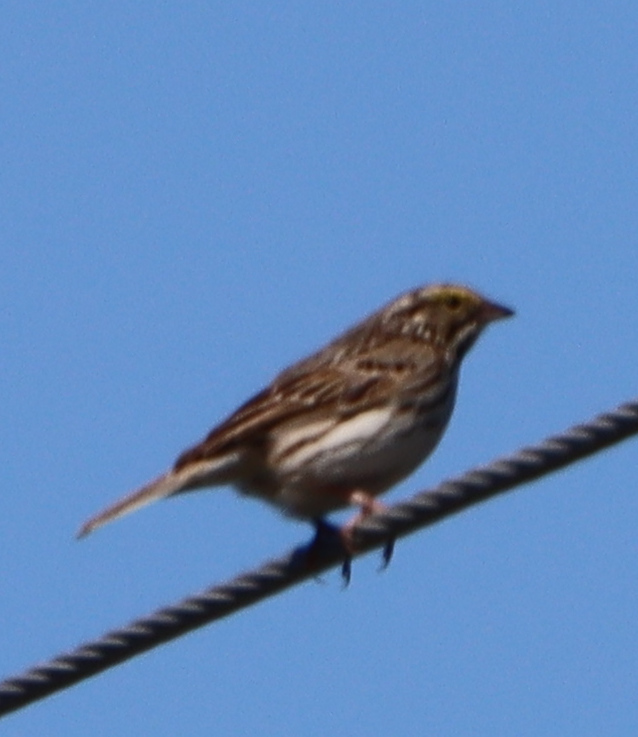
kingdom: Animalia
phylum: Chordata
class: Aves
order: Passeriformes
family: Passerellidae
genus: Passerculus
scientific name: Passerculus sandwichensis
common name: Savannah sparrow
